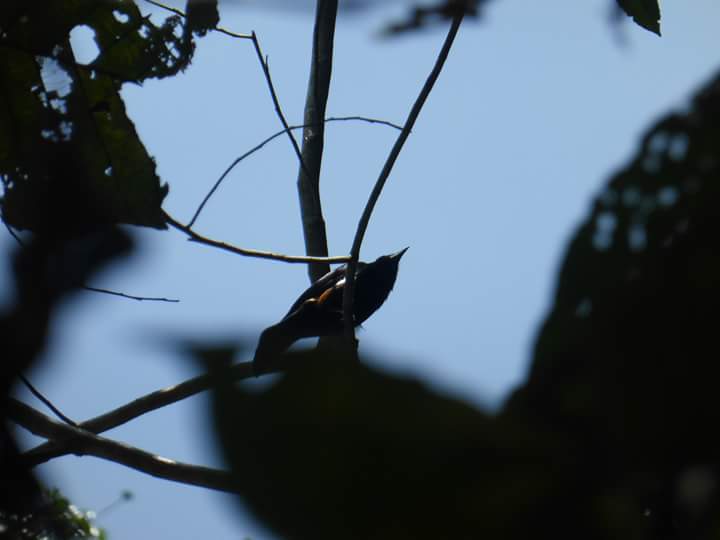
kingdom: Animalia
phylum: Chordata
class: Aves
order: Passeriformes
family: Thraupidae
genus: Tachyphonus
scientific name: Tachyphonus surinamus
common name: Fulvous-crested tanager
